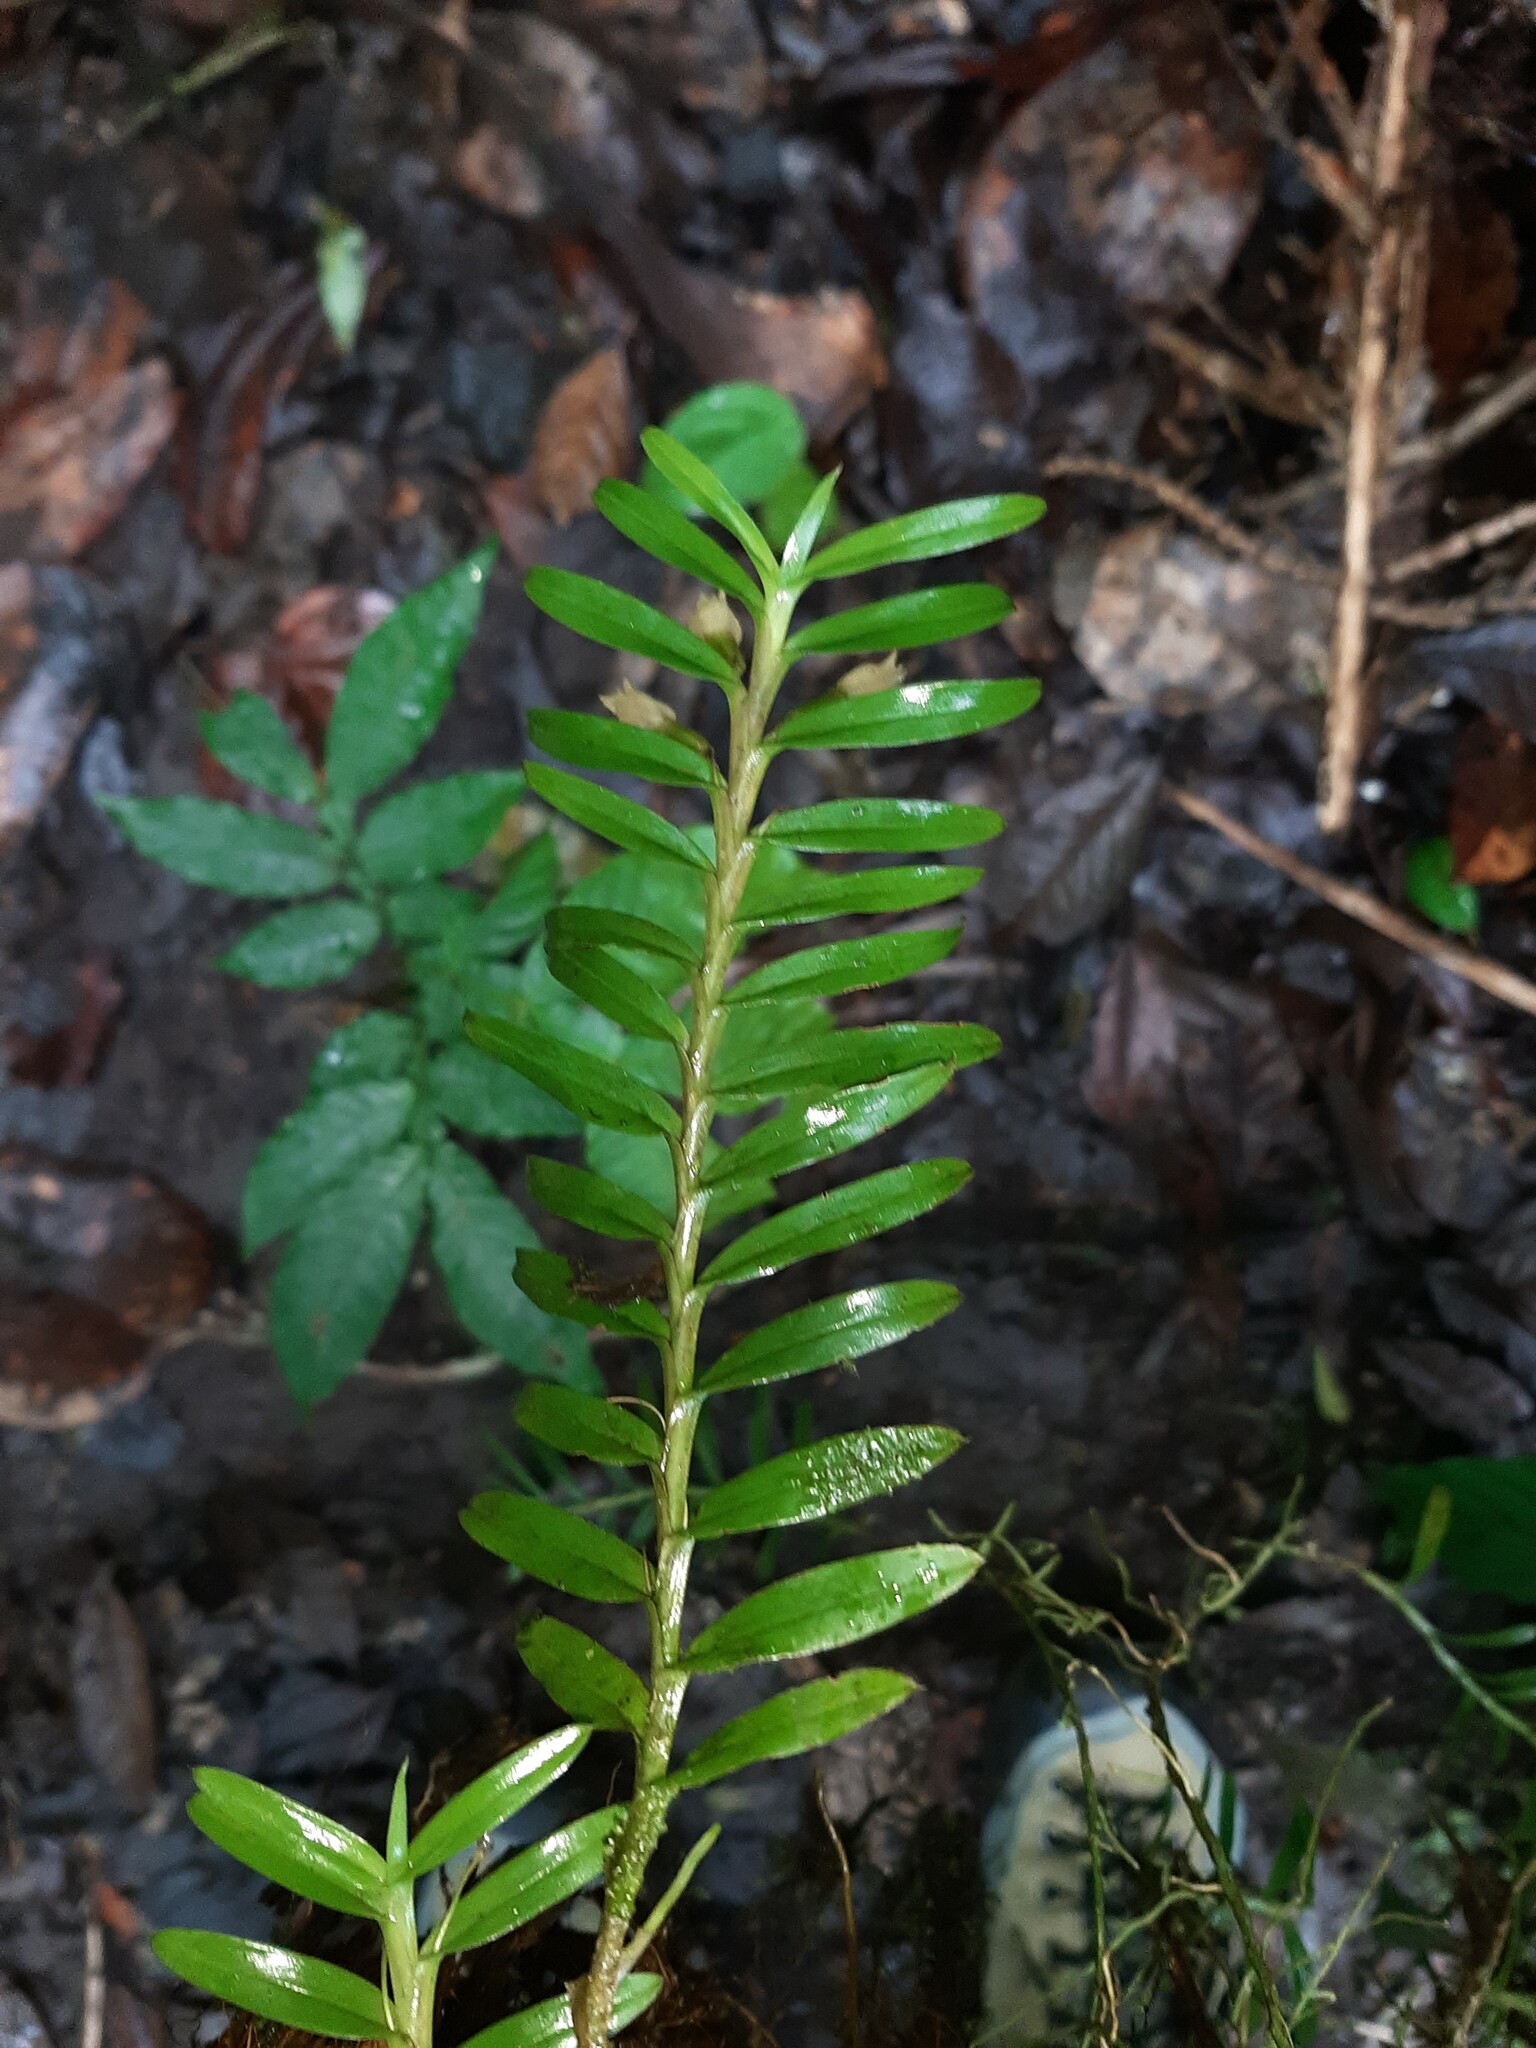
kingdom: Plantae
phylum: Tracheophyta
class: Liliopsida
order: Asparagales
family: Orchidaceae
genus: Dichaea
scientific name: Dichaea graminoides
